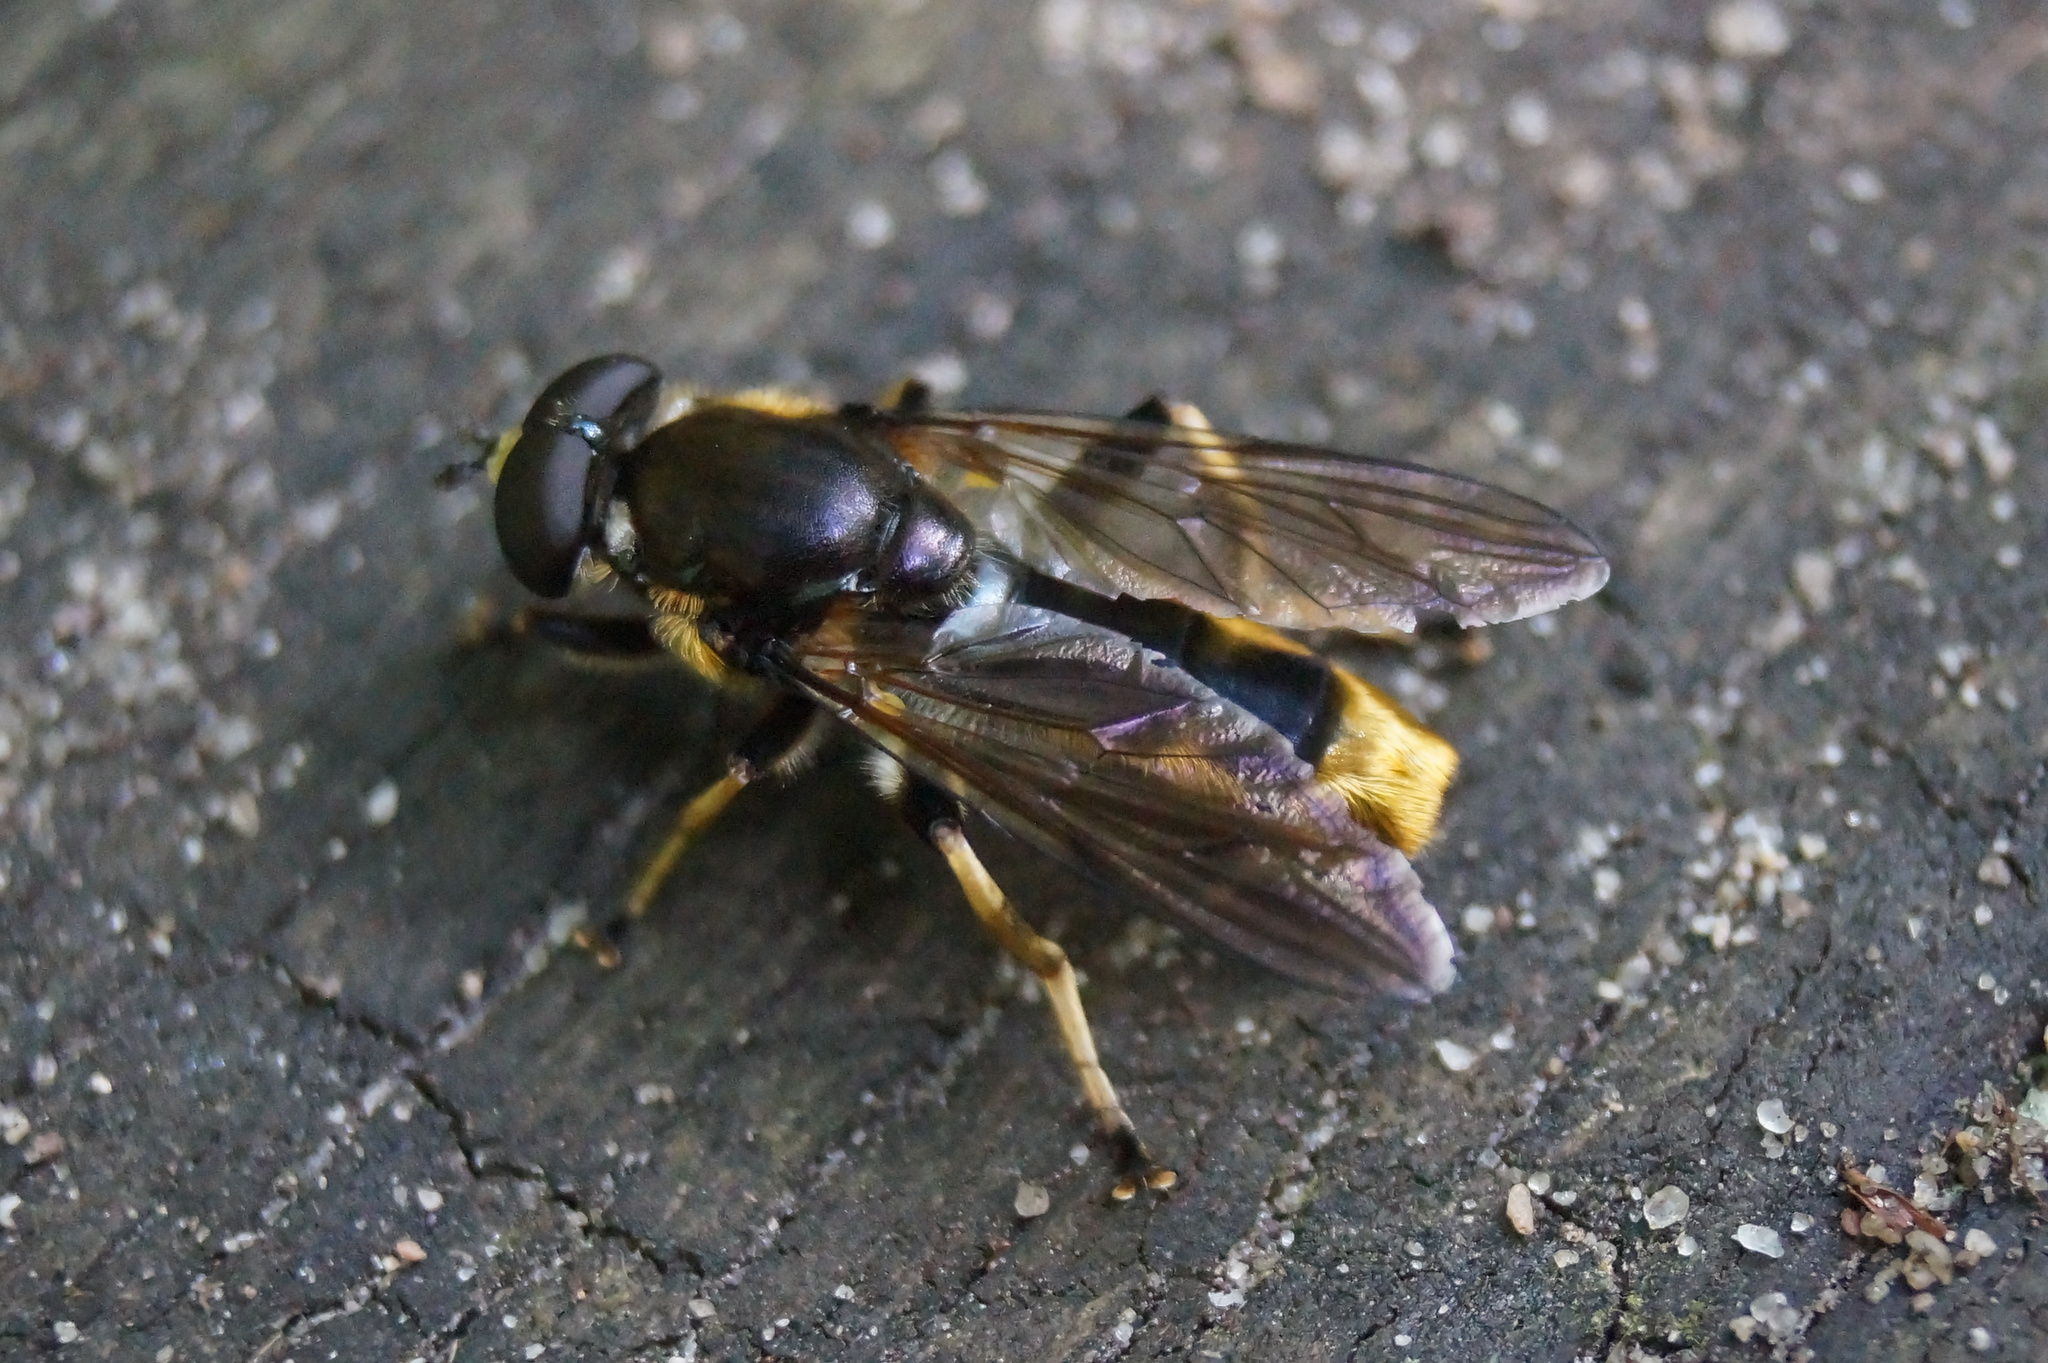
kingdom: Animalia
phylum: Arthropoda
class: Insecta
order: Diptera
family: Syrphidae
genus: Xylota
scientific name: Xylota sylvarum
